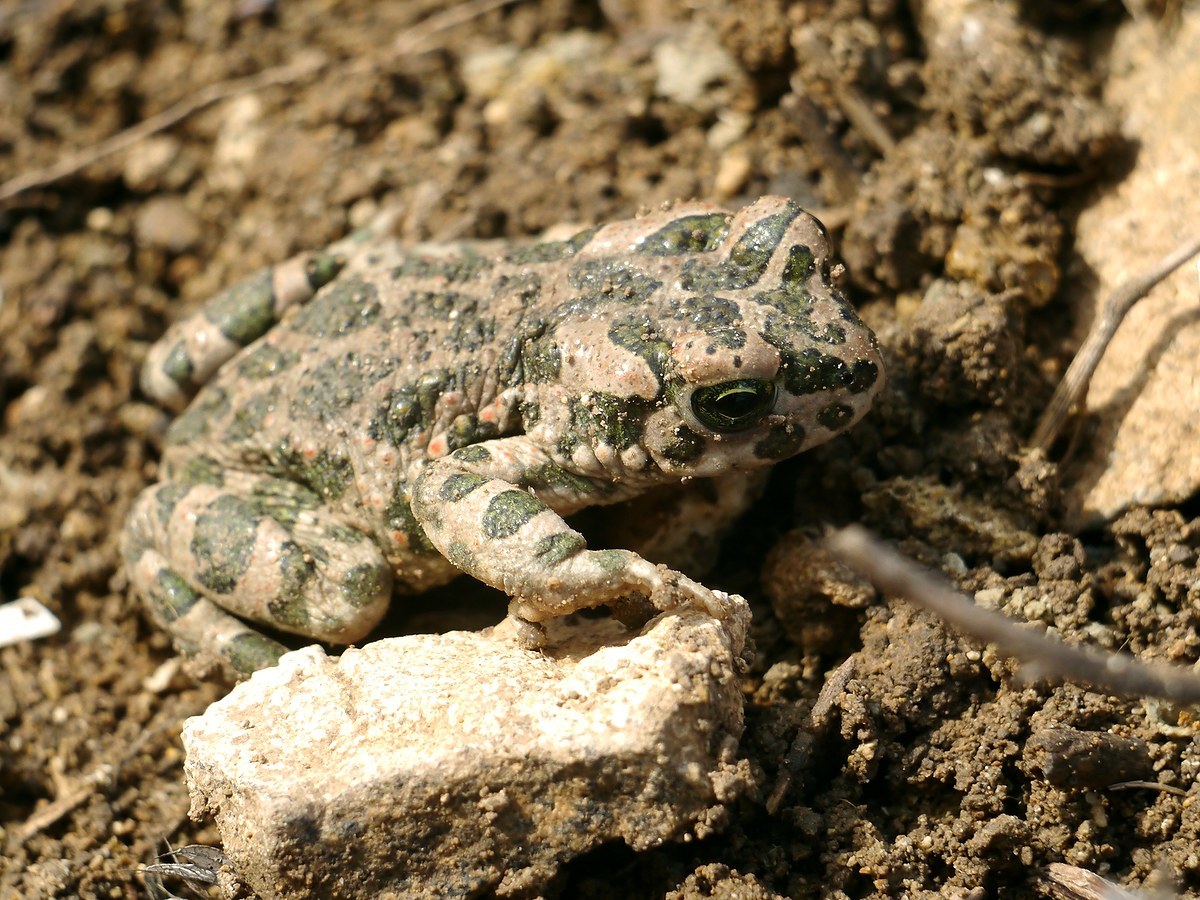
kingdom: Animalia
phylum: Chordata
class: Amphibia
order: Anura
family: Bufonidae
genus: Bufotes
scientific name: Bufotes viridis
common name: European green toad
